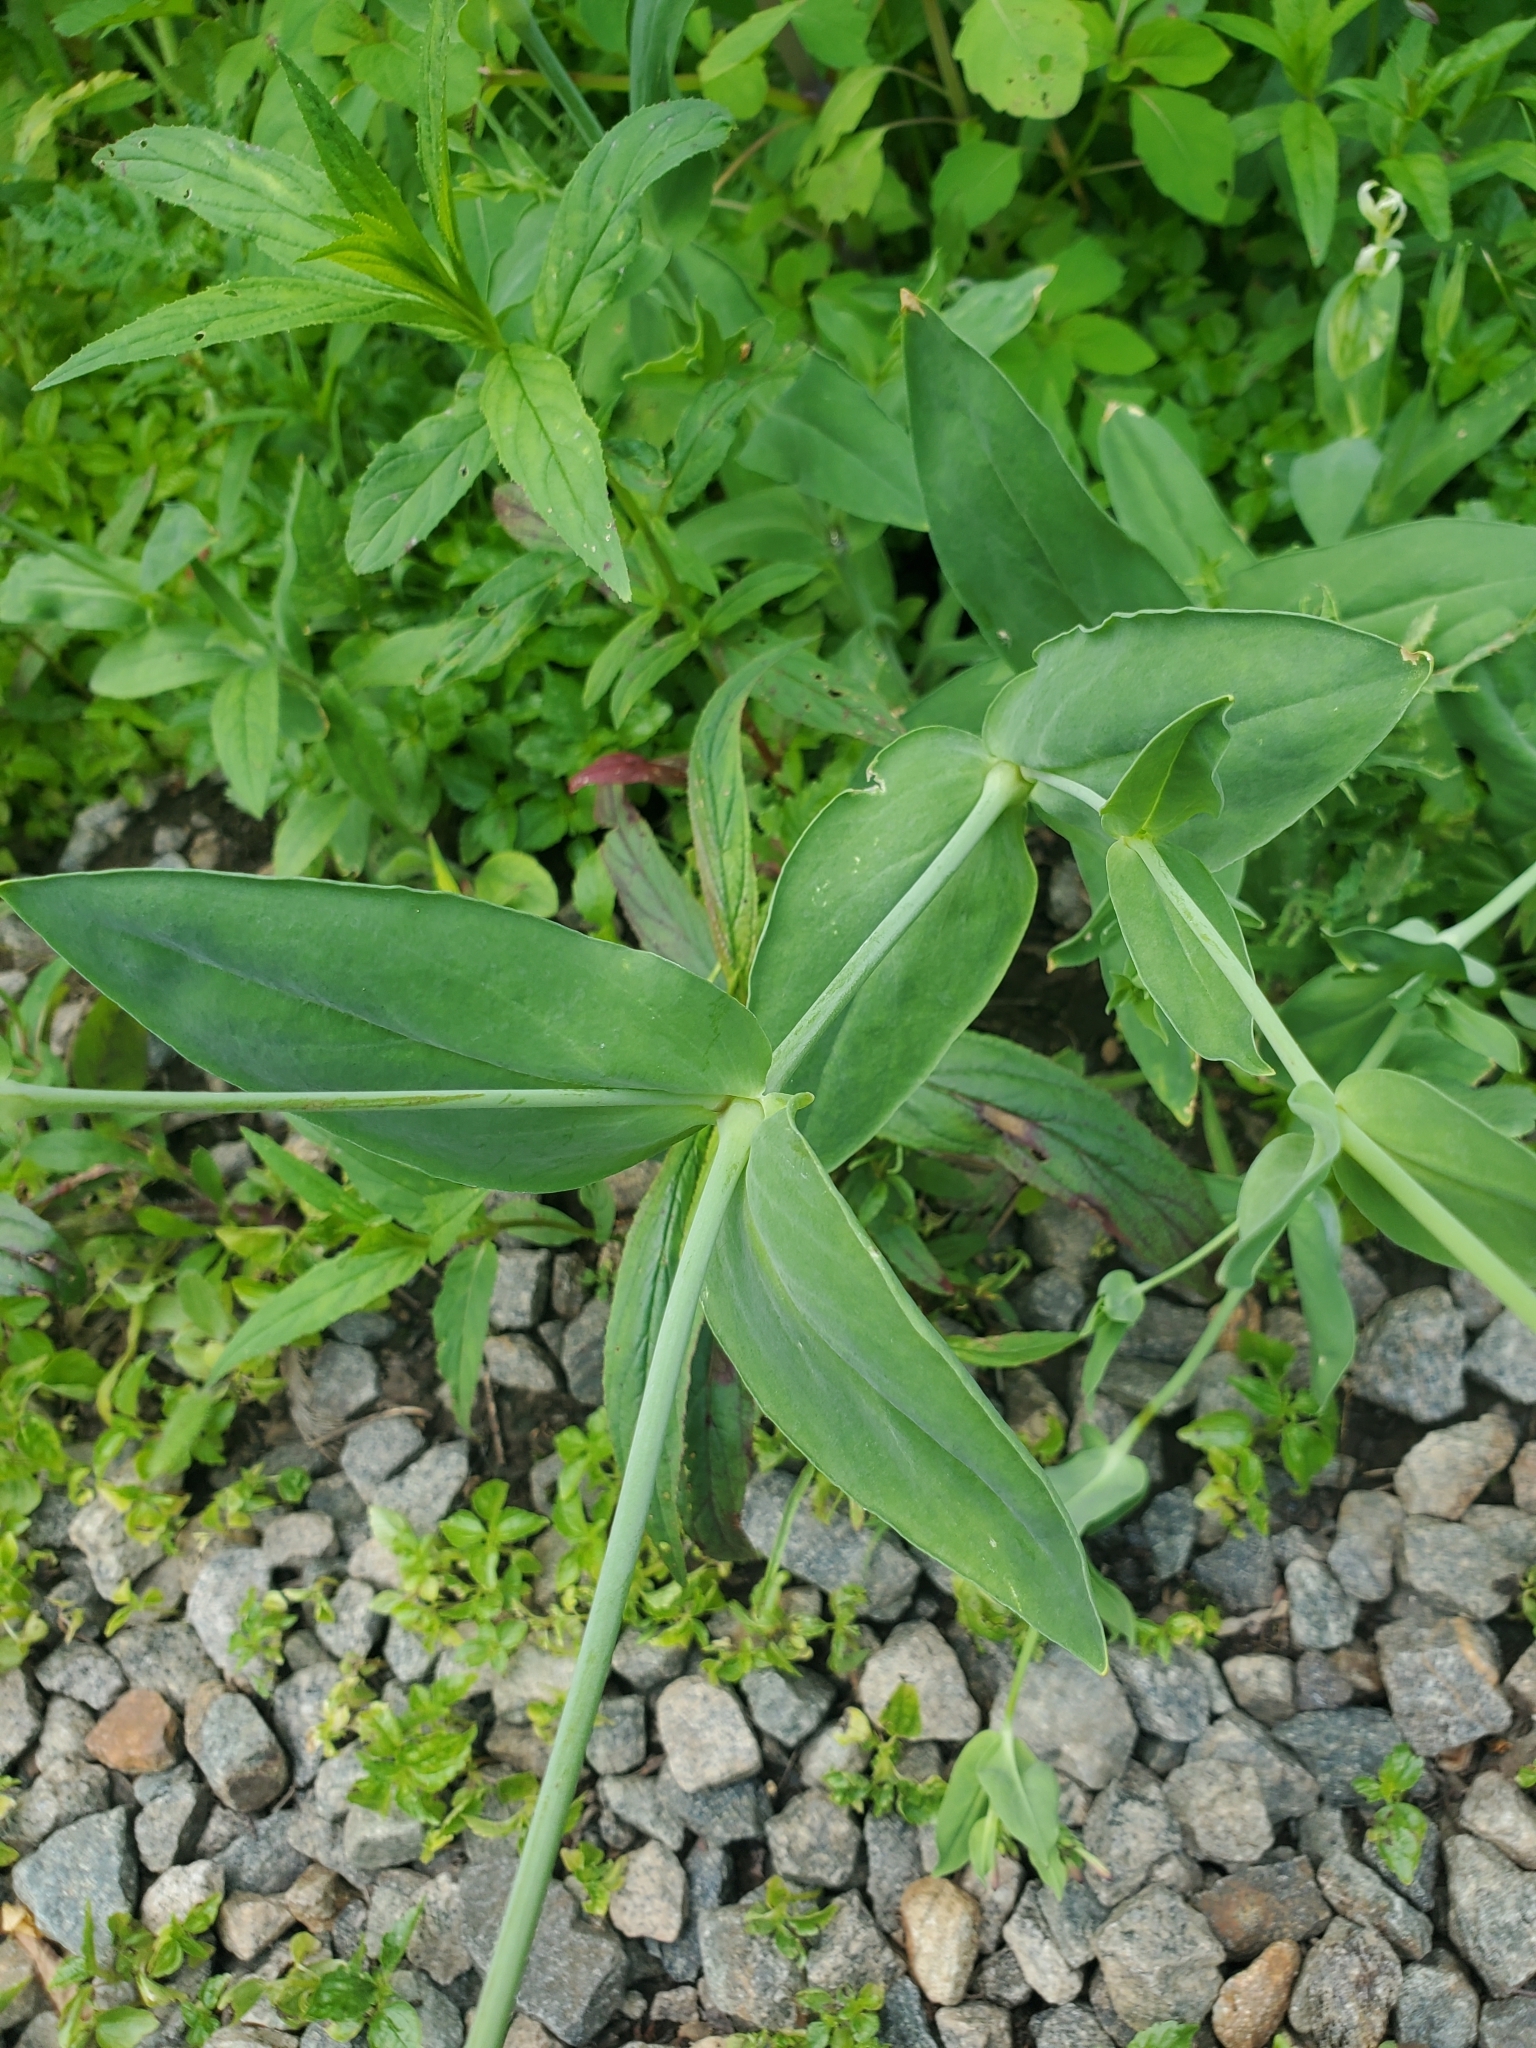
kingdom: Plantae
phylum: Tracheophyta
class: Magnoliopsida
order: Caryophyllales
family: Caryophyllaceae
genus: Atocion
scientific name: Atocion armeria
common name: Sweet william catchfly
